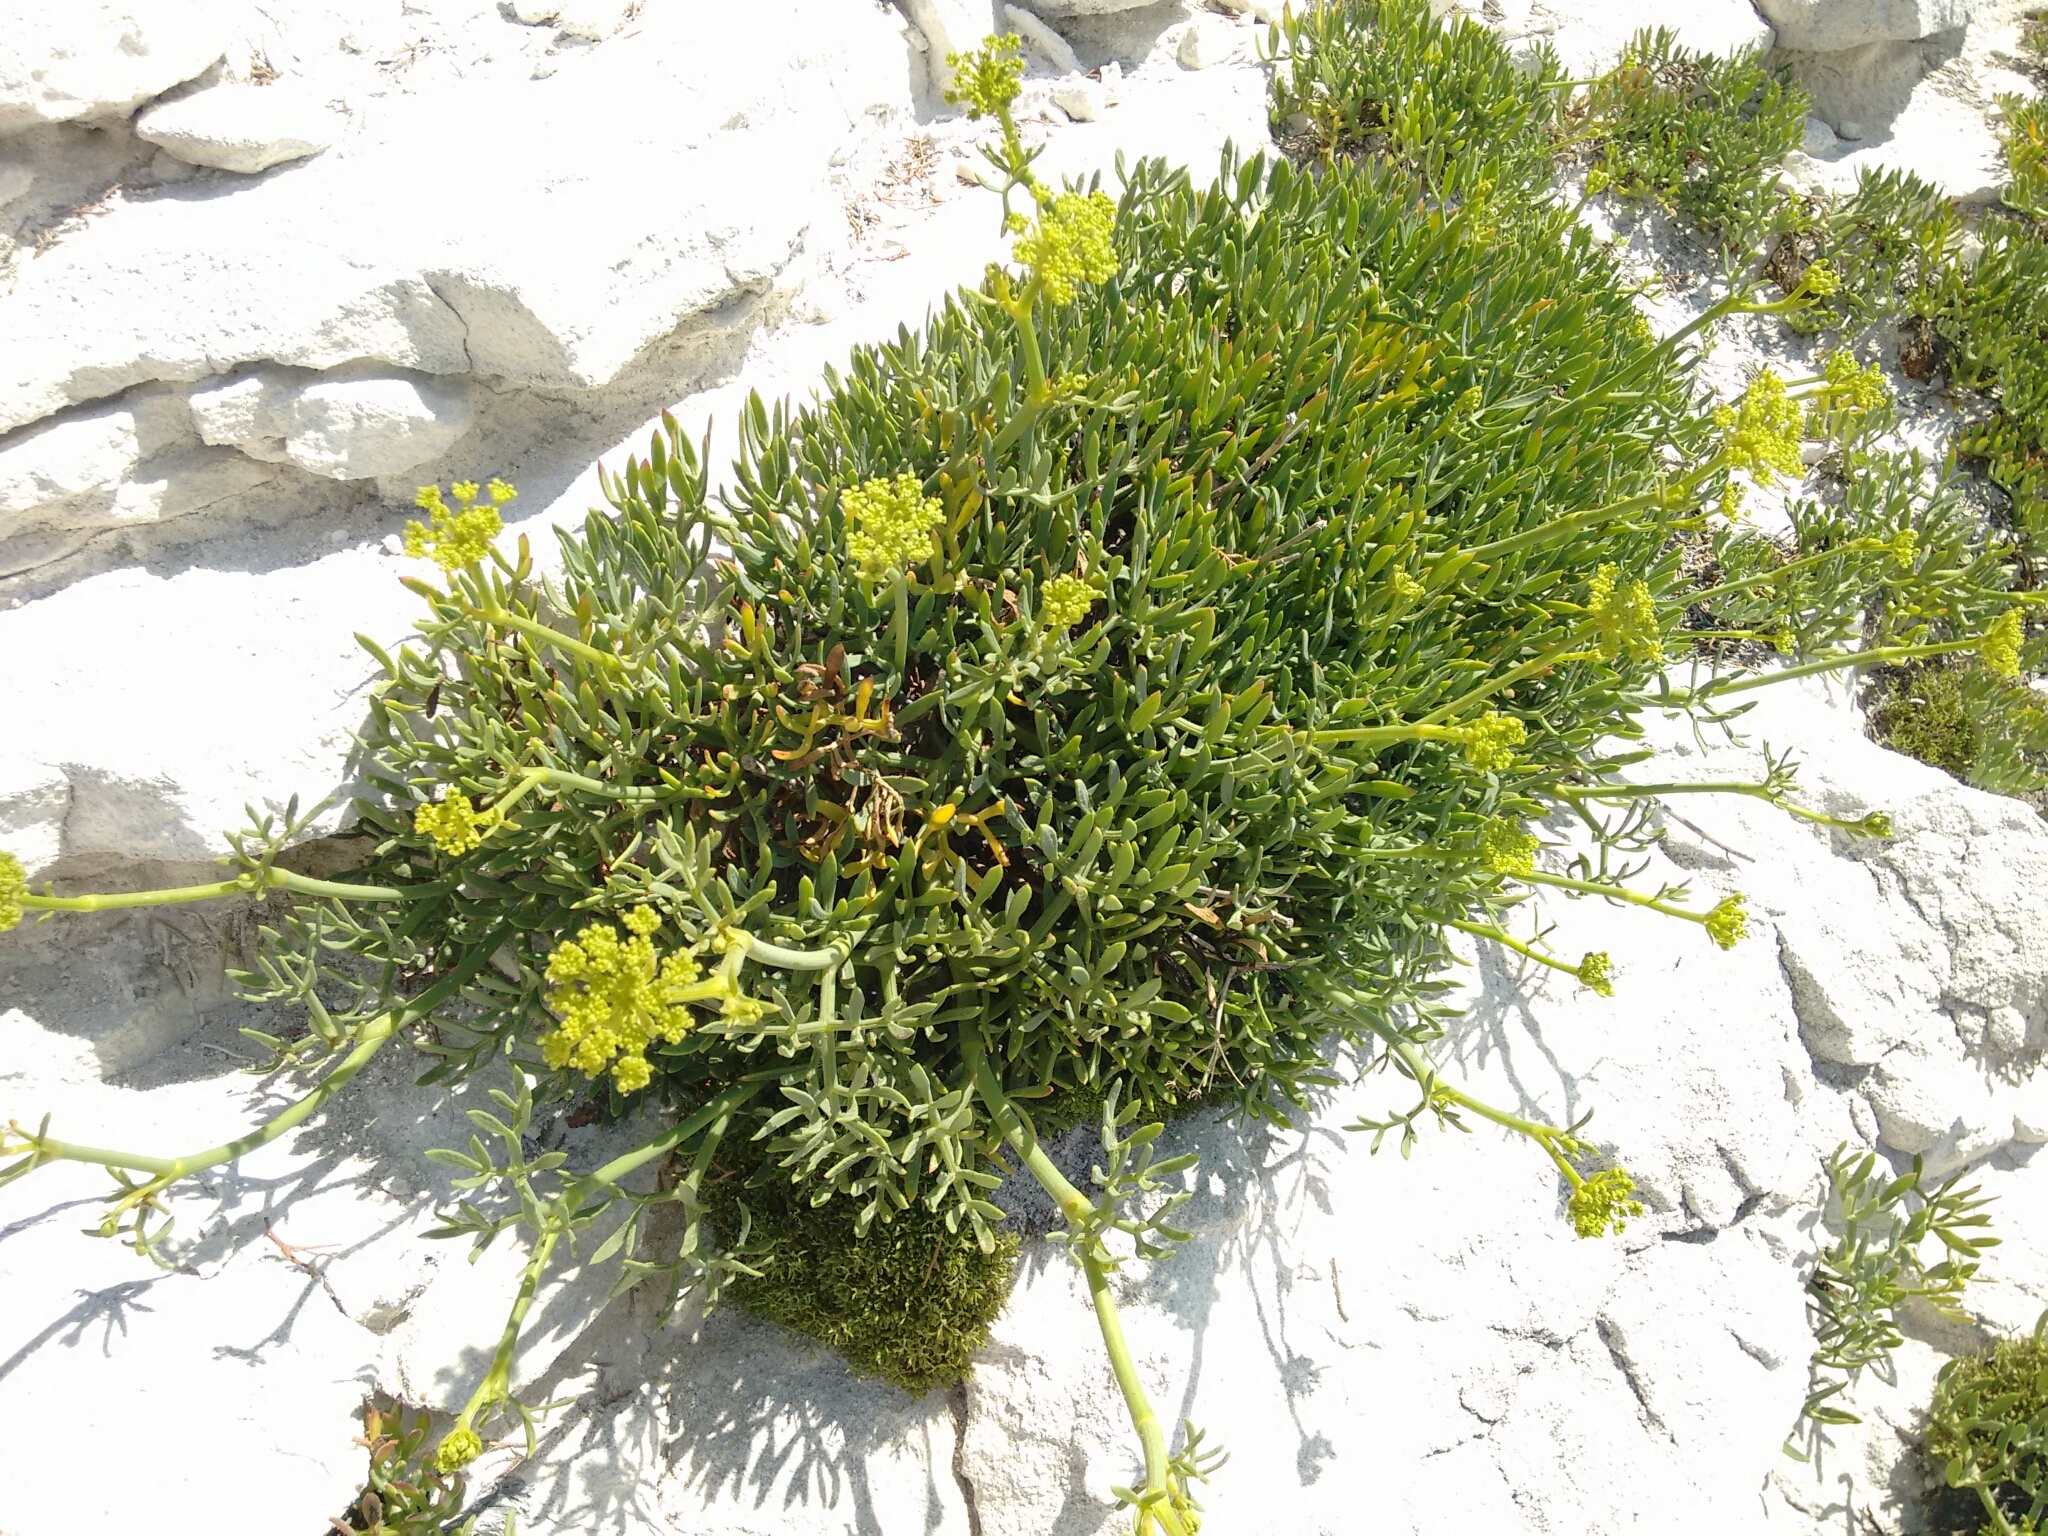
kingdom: Plantae
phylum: Tracheophyta
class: Magnoliopsida
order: Apiales
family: Apiaceae
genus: Crithmum
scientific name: Crithmum maritimum
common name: Rock samphire
